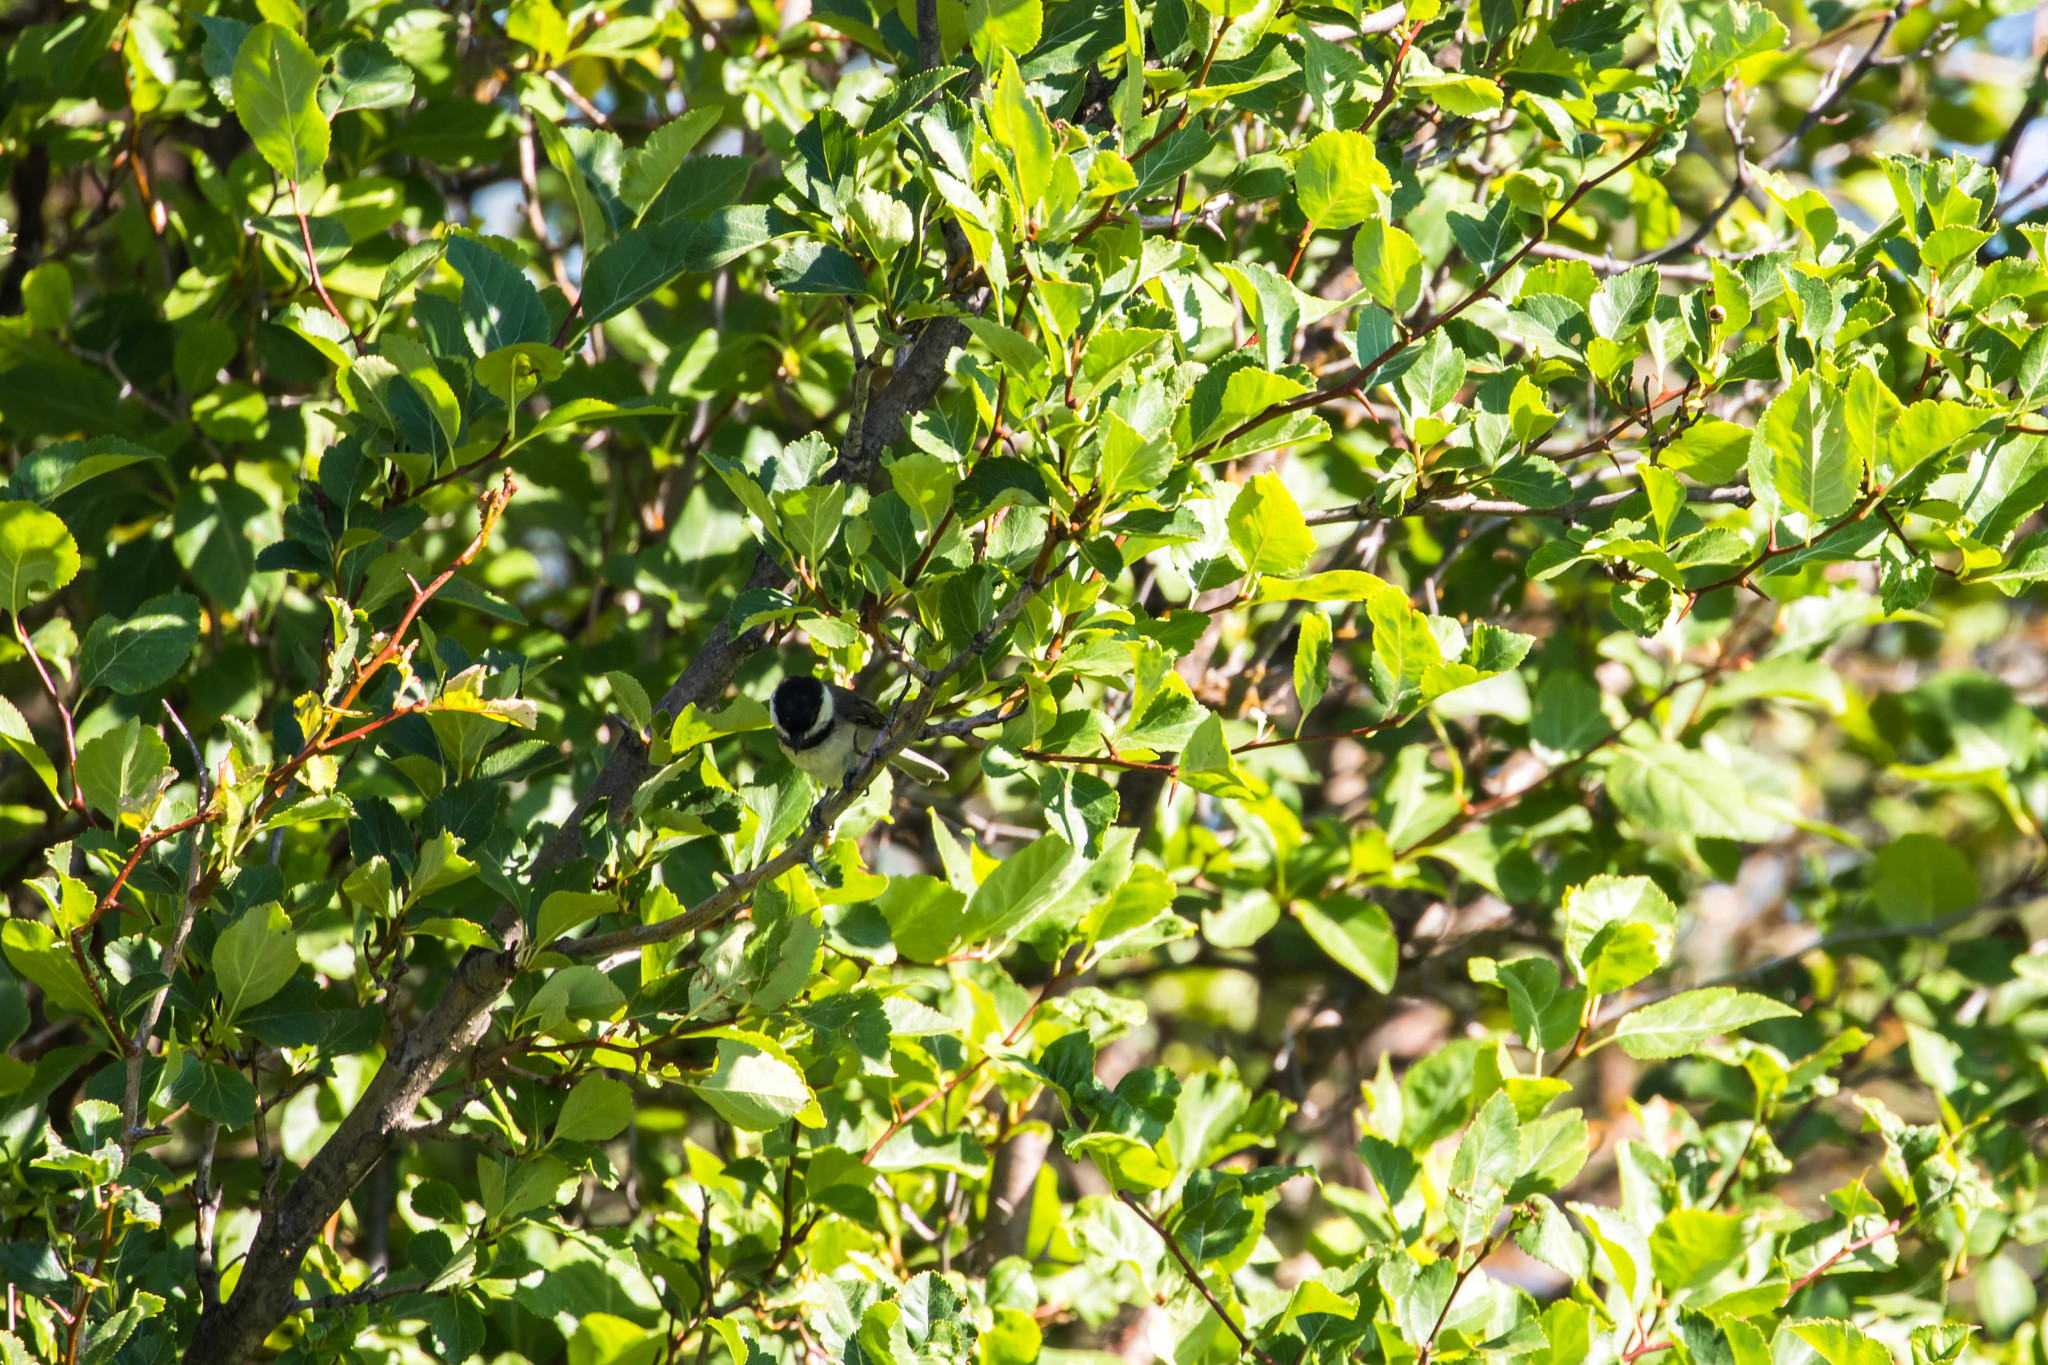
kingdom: Animalia
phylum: Chordata
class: Aves
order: Passeriformes
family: Paridae
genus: Poecile
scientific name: Poecile atricapillus
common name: Black-capped chickadee
